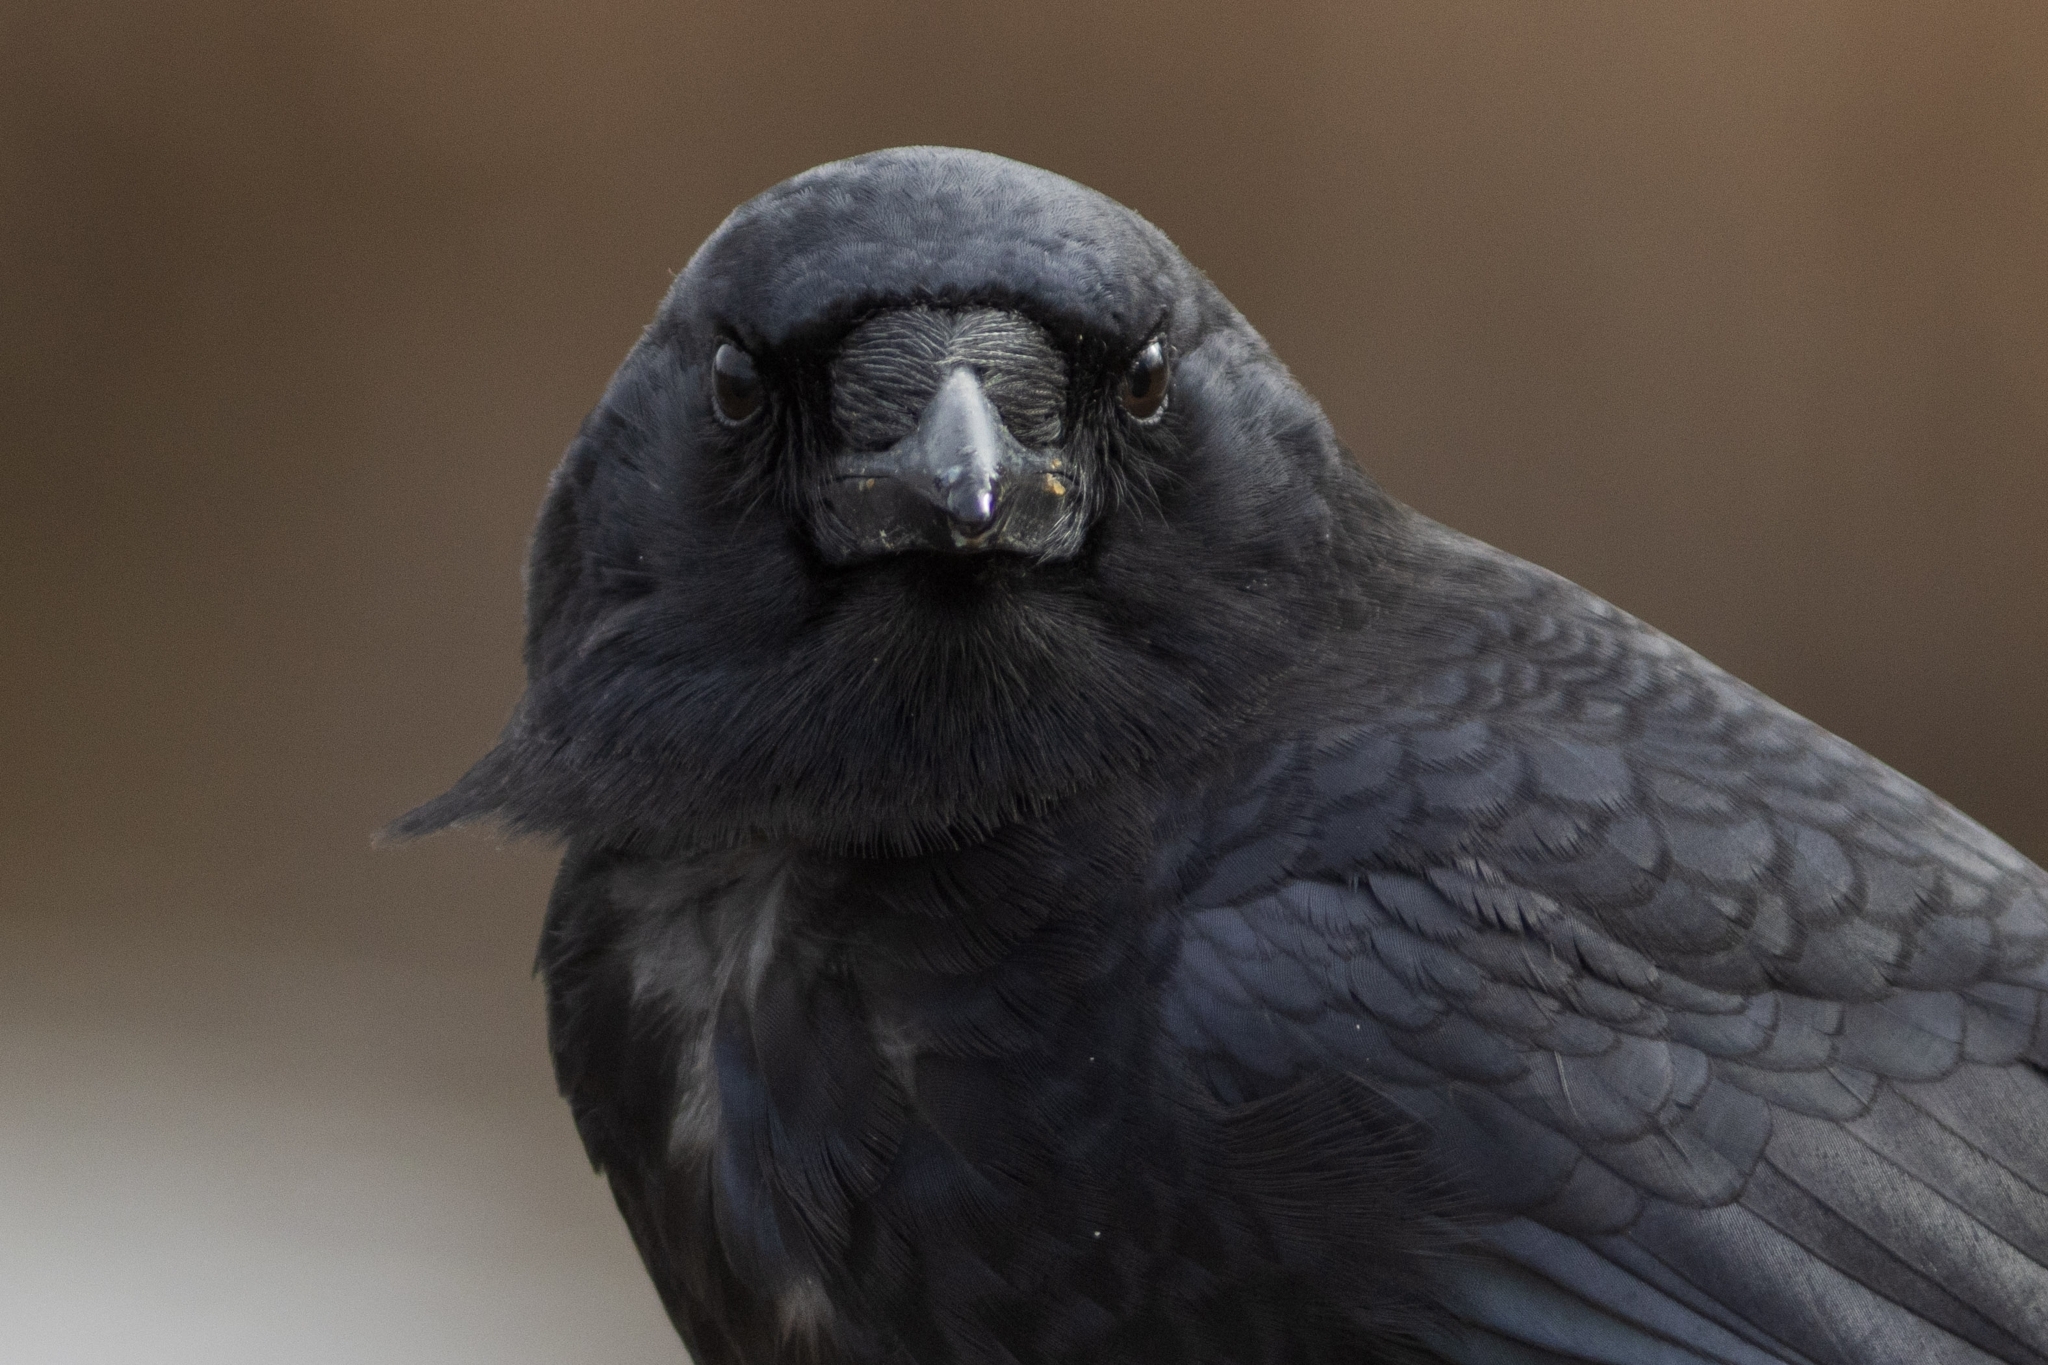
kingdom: Animalia
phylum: Chordata
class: Aves
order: Passeriformes
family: Corvidae
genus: Corvus
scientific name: Corvus brachyrhynchos
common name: American crow
